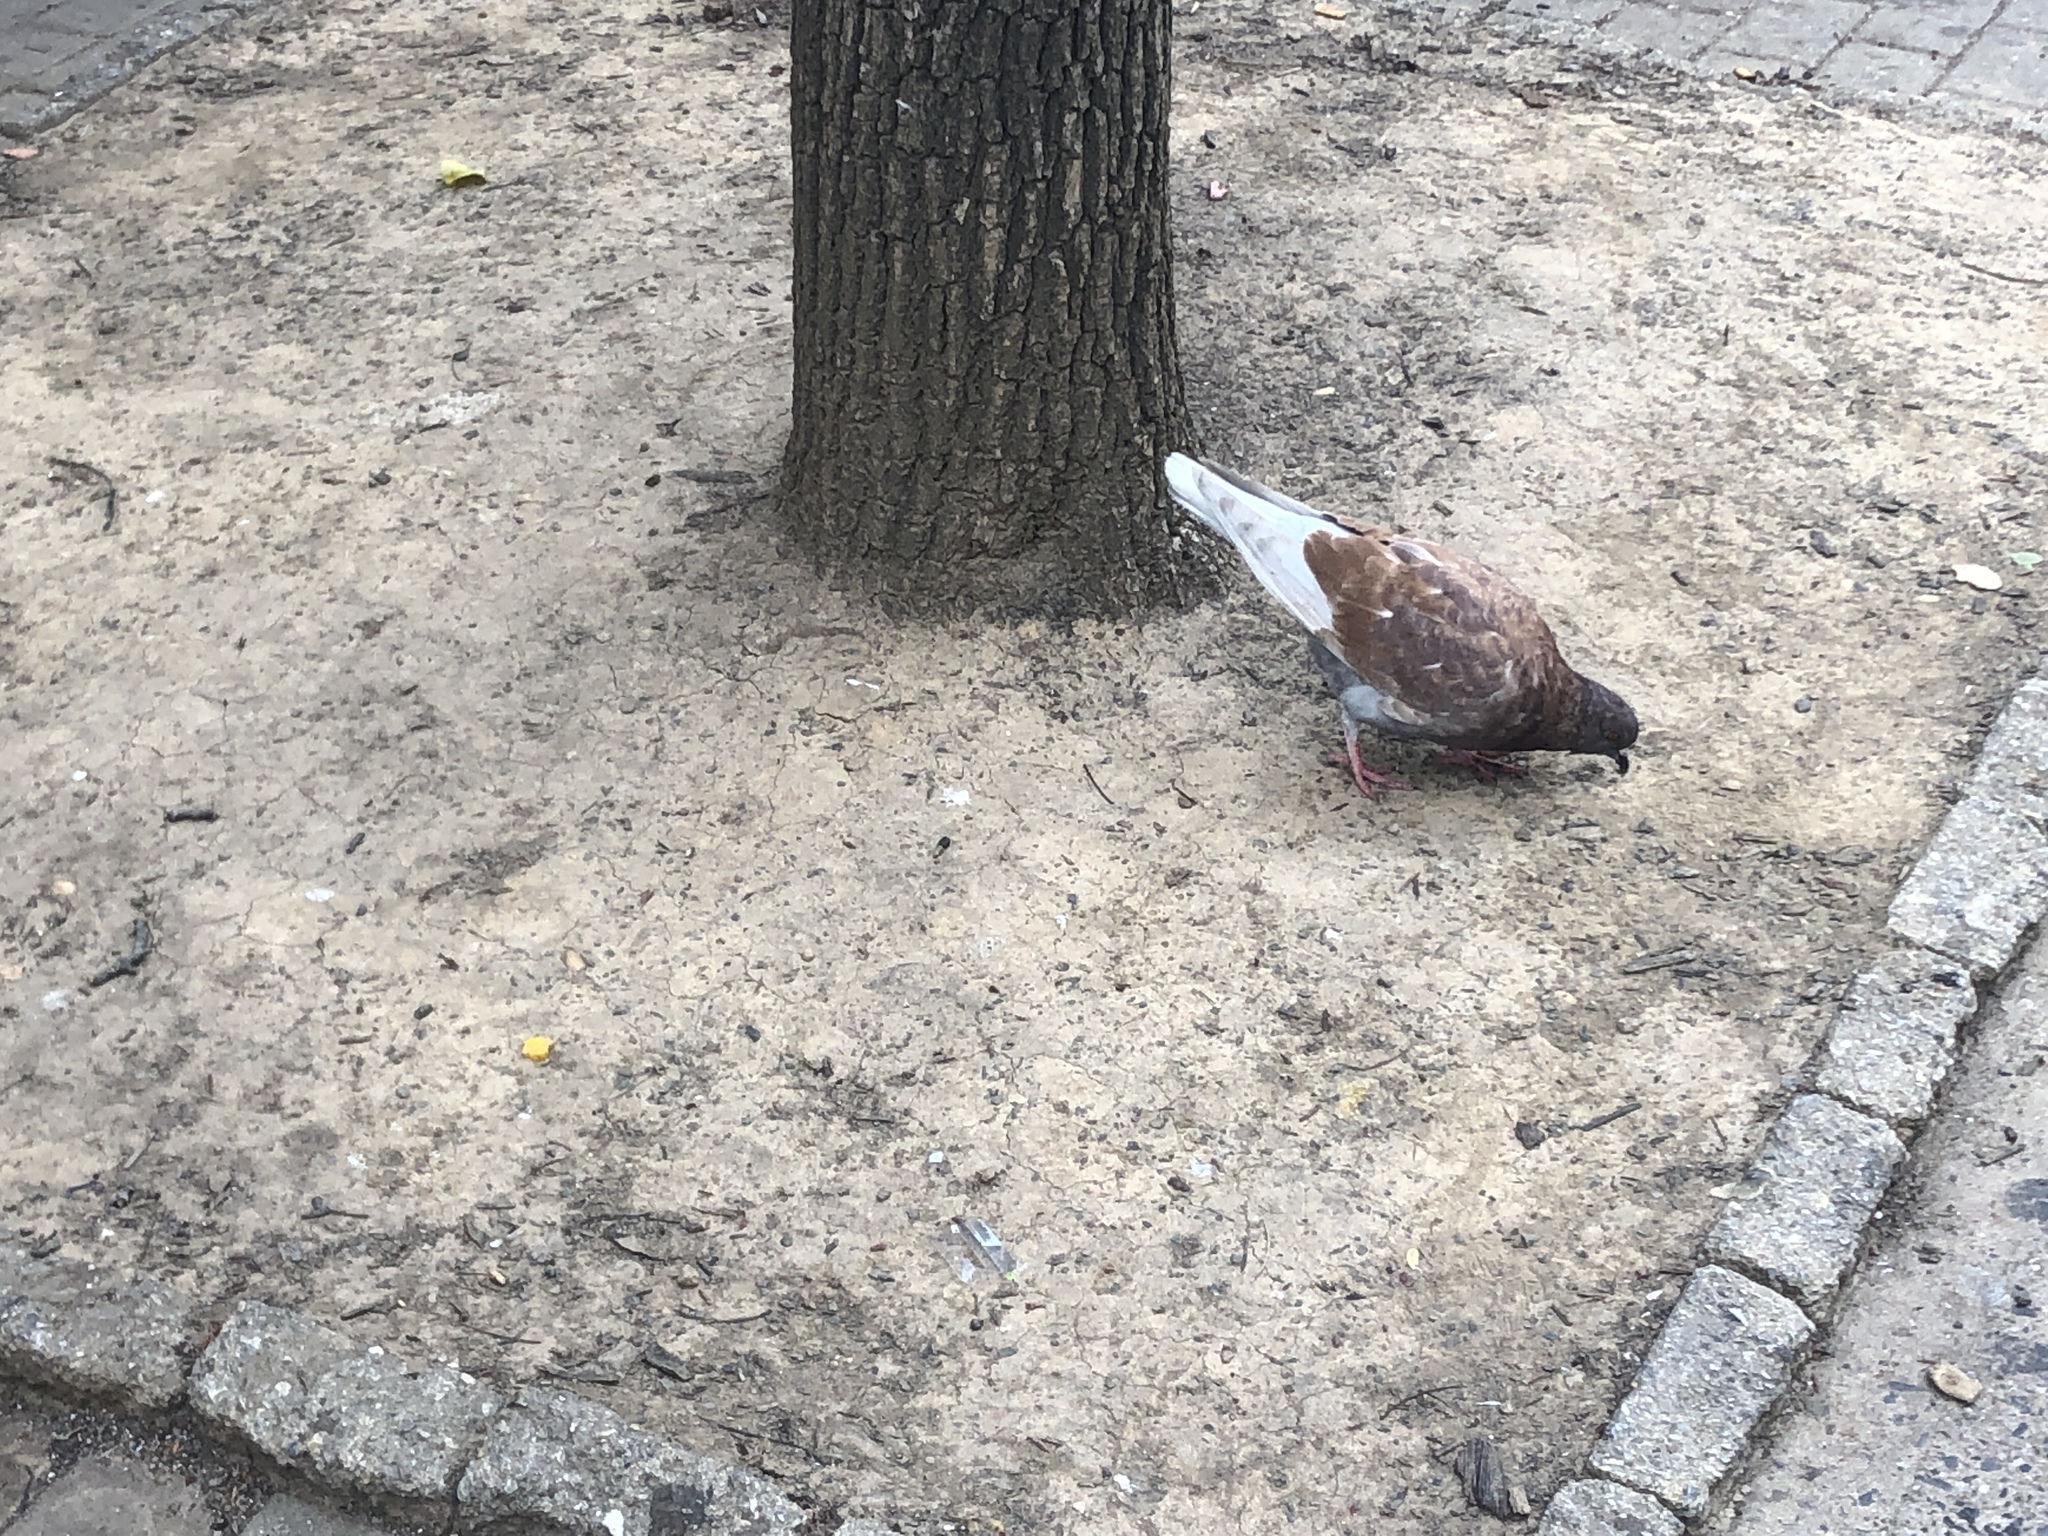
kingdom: Animalia
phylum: Chordata
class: Aves
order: Columbiformes
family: Columbidae
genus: Columba
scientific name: Columba livia
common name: Rock pigeon
